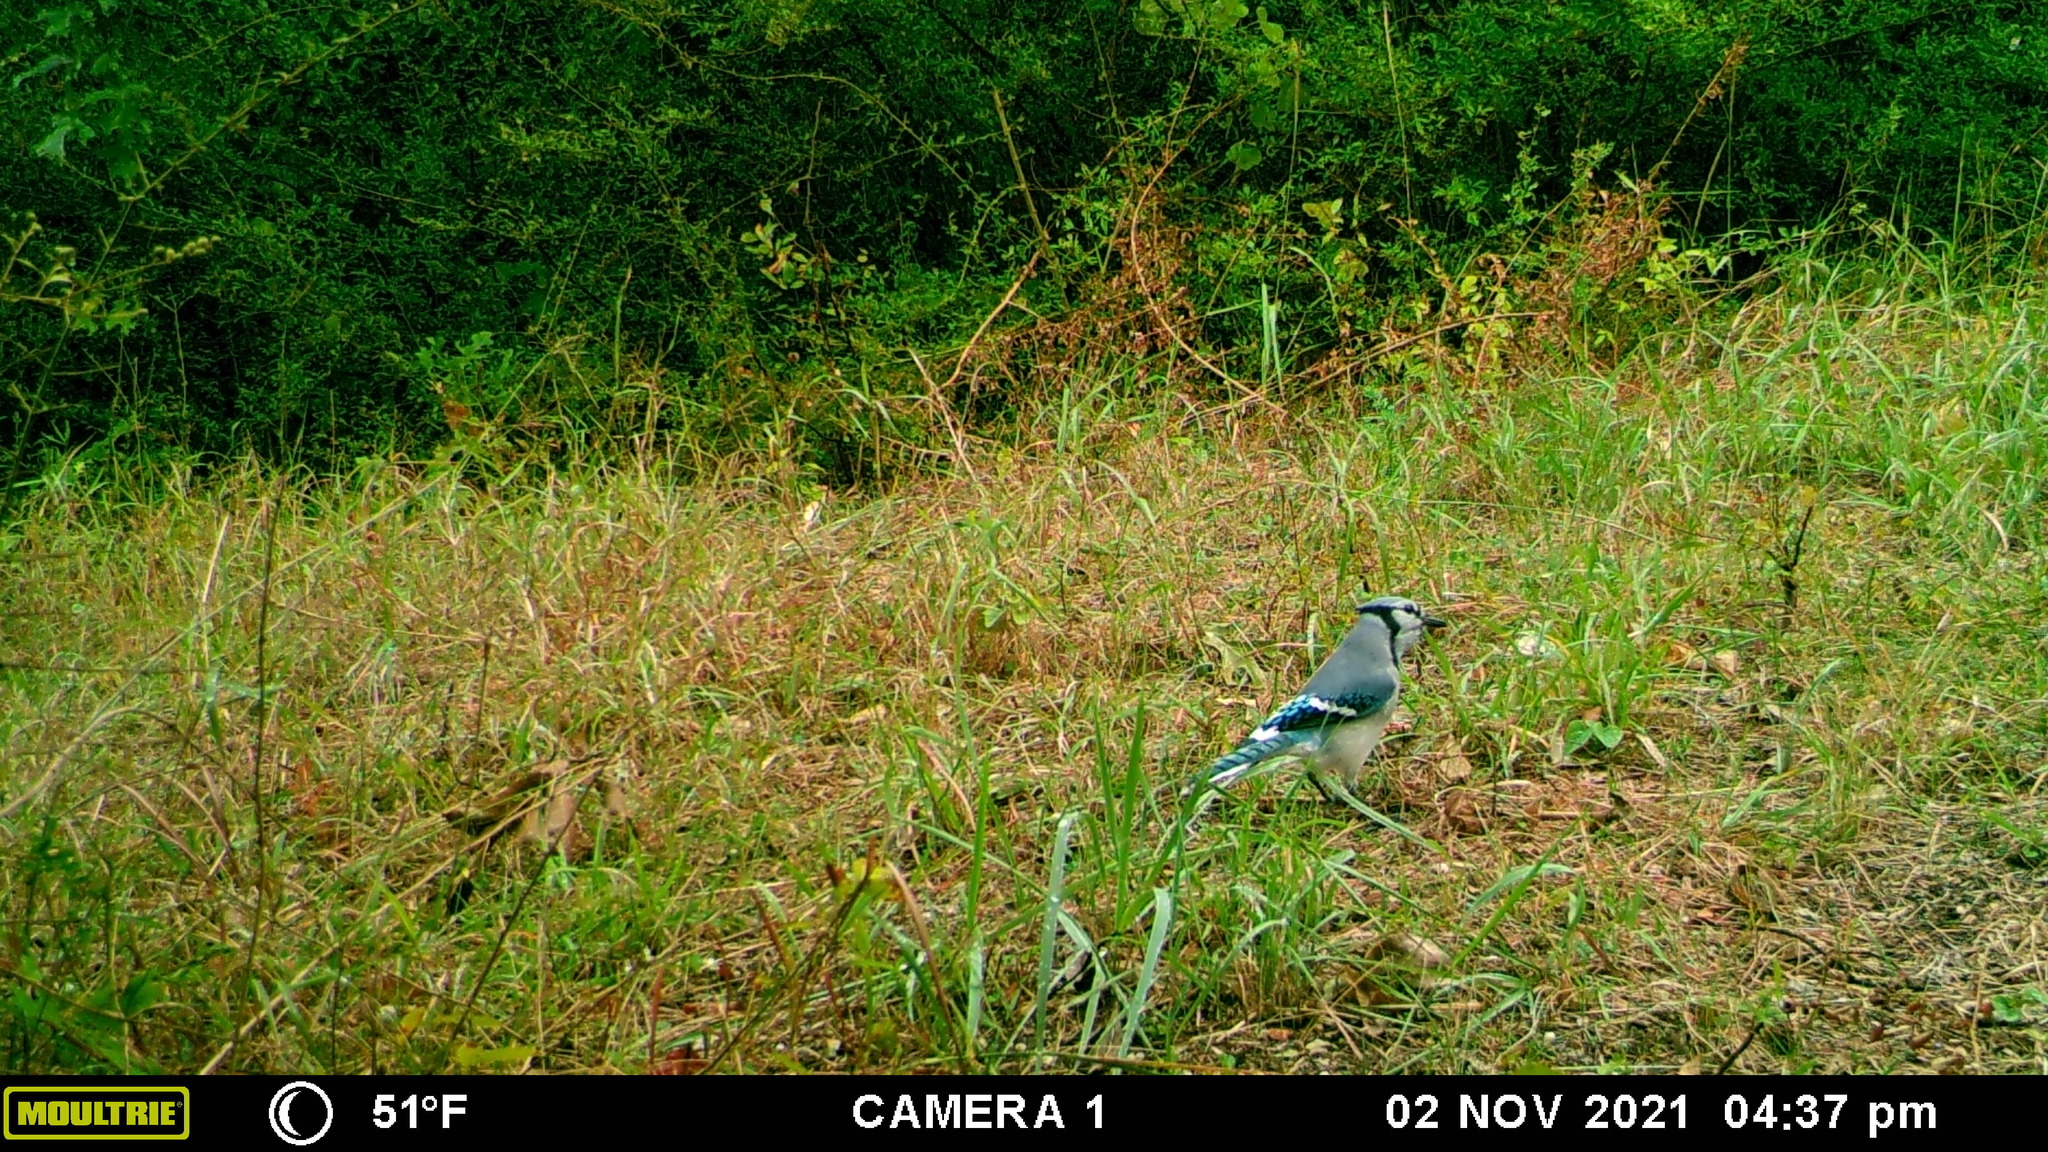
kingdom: Animalia
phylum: Chordata
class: Aves
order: Passeriformes
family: Corvidae
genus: Cyanocitta
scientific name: Cyanocitta cristata
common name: Blue jay
